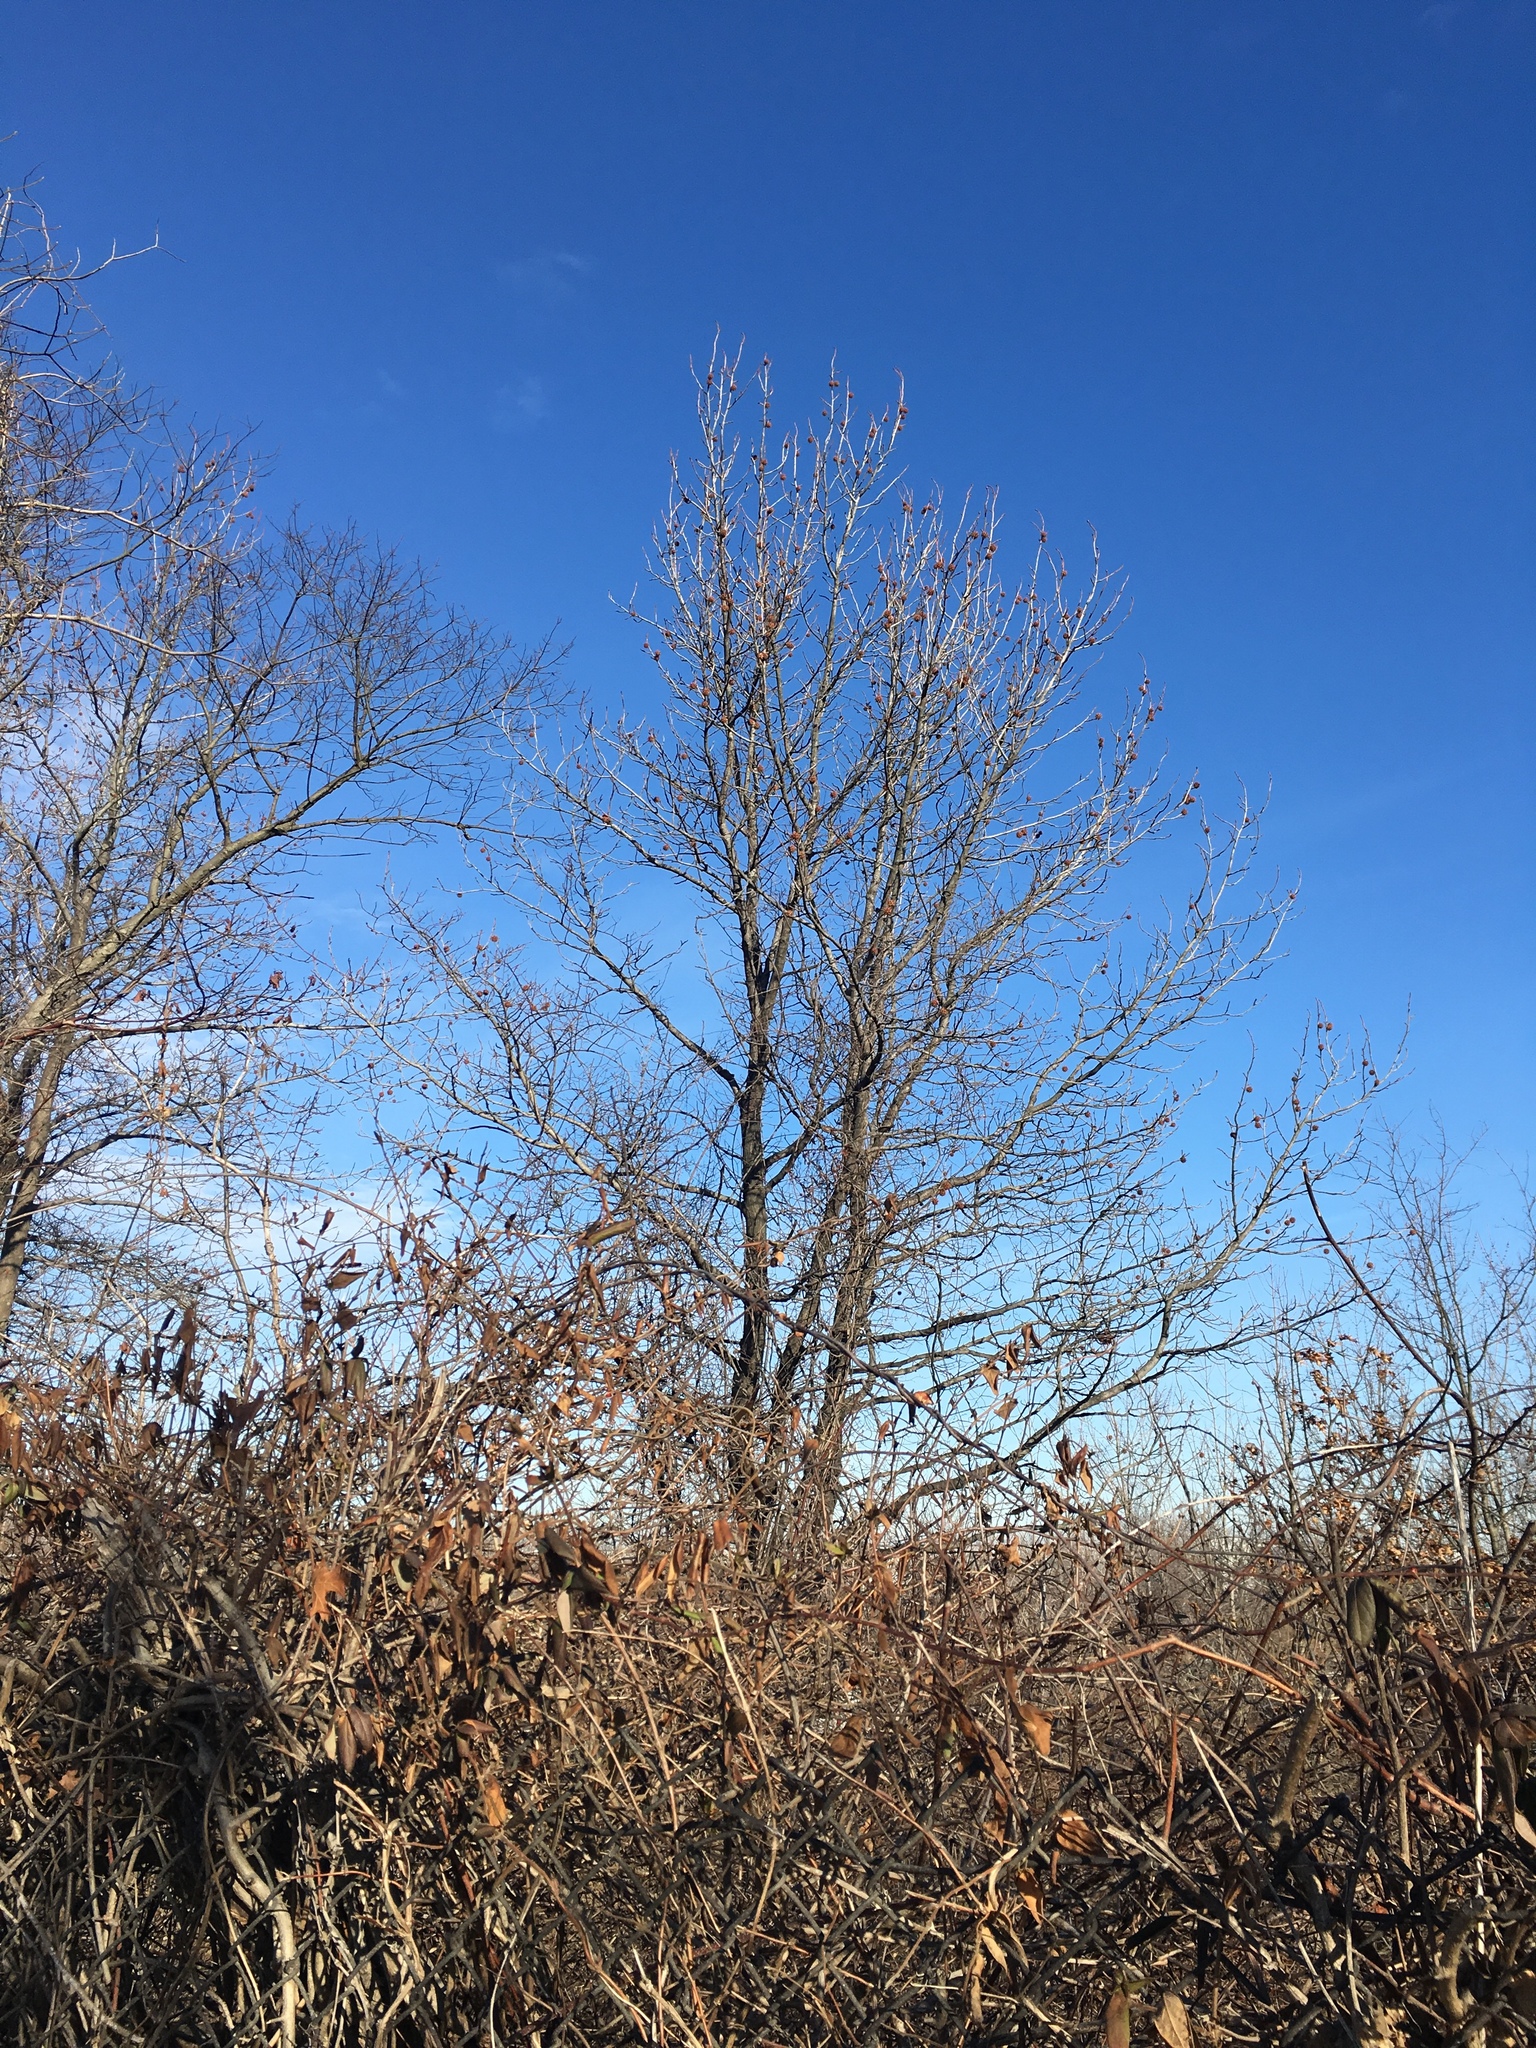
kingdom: Plantae
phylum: Tracheophyta
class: Magnoliopsida
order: Saxifragales
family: Altingiaceae
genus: Liquidambar
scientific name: Liquidambar styraciflua
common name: Sweet gum
